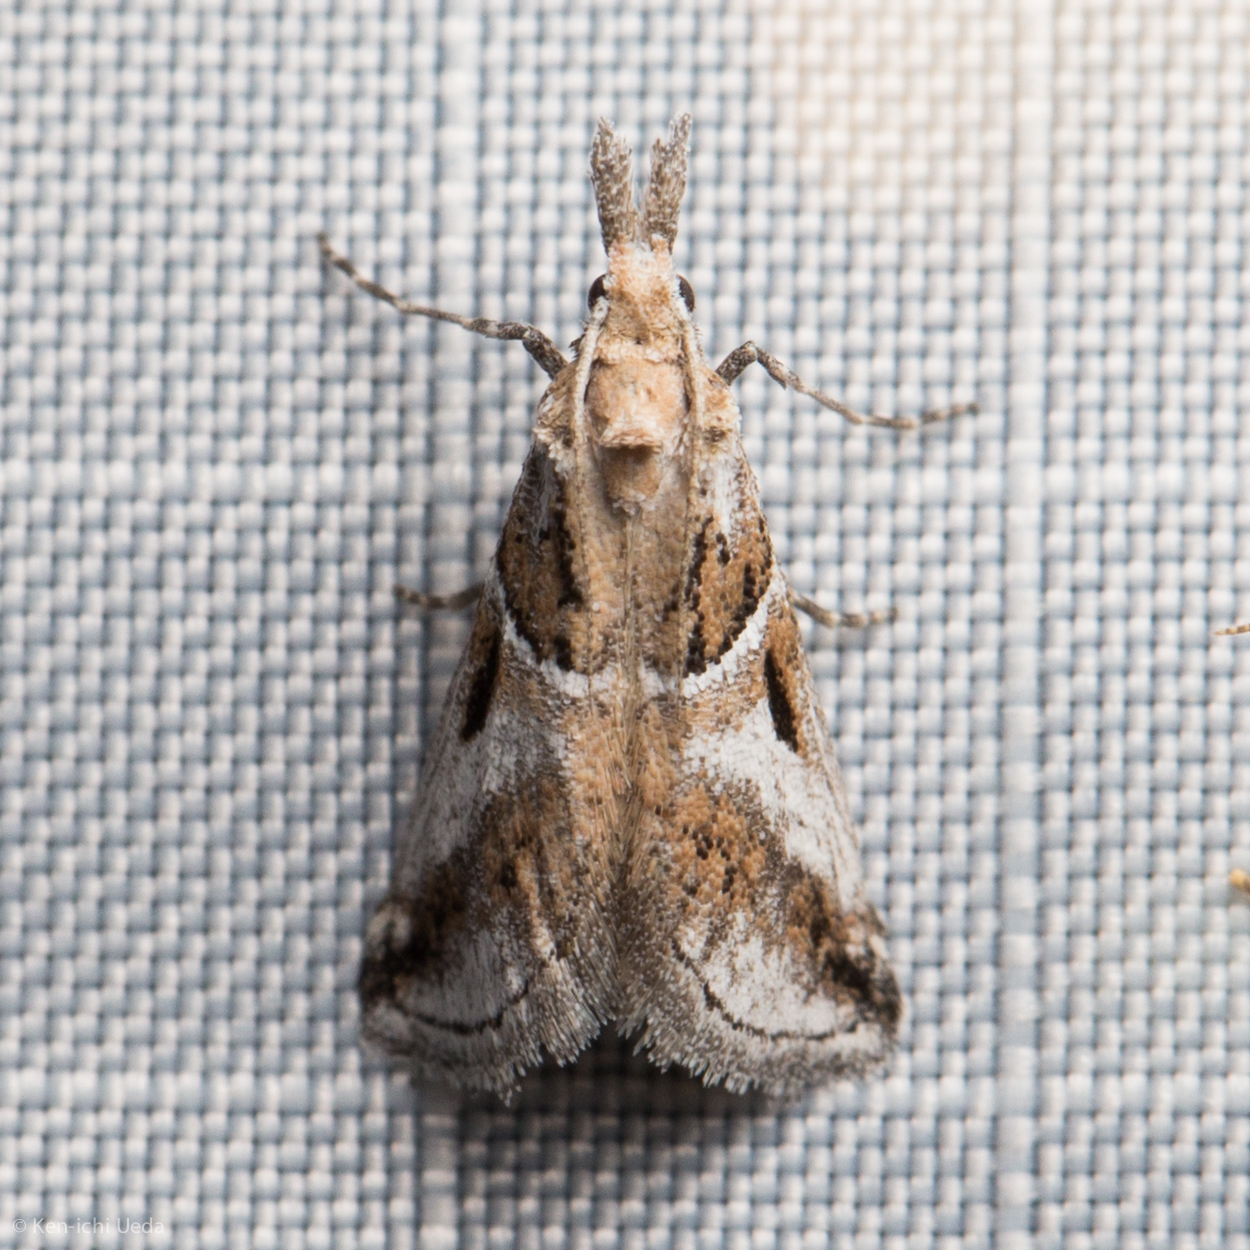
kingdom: Animalia
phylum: Arthropoda
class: Insecta
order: Lepidoptera
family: Pyralidae
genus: Alpheias
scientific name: Alpheias Decaturia pectinalis
